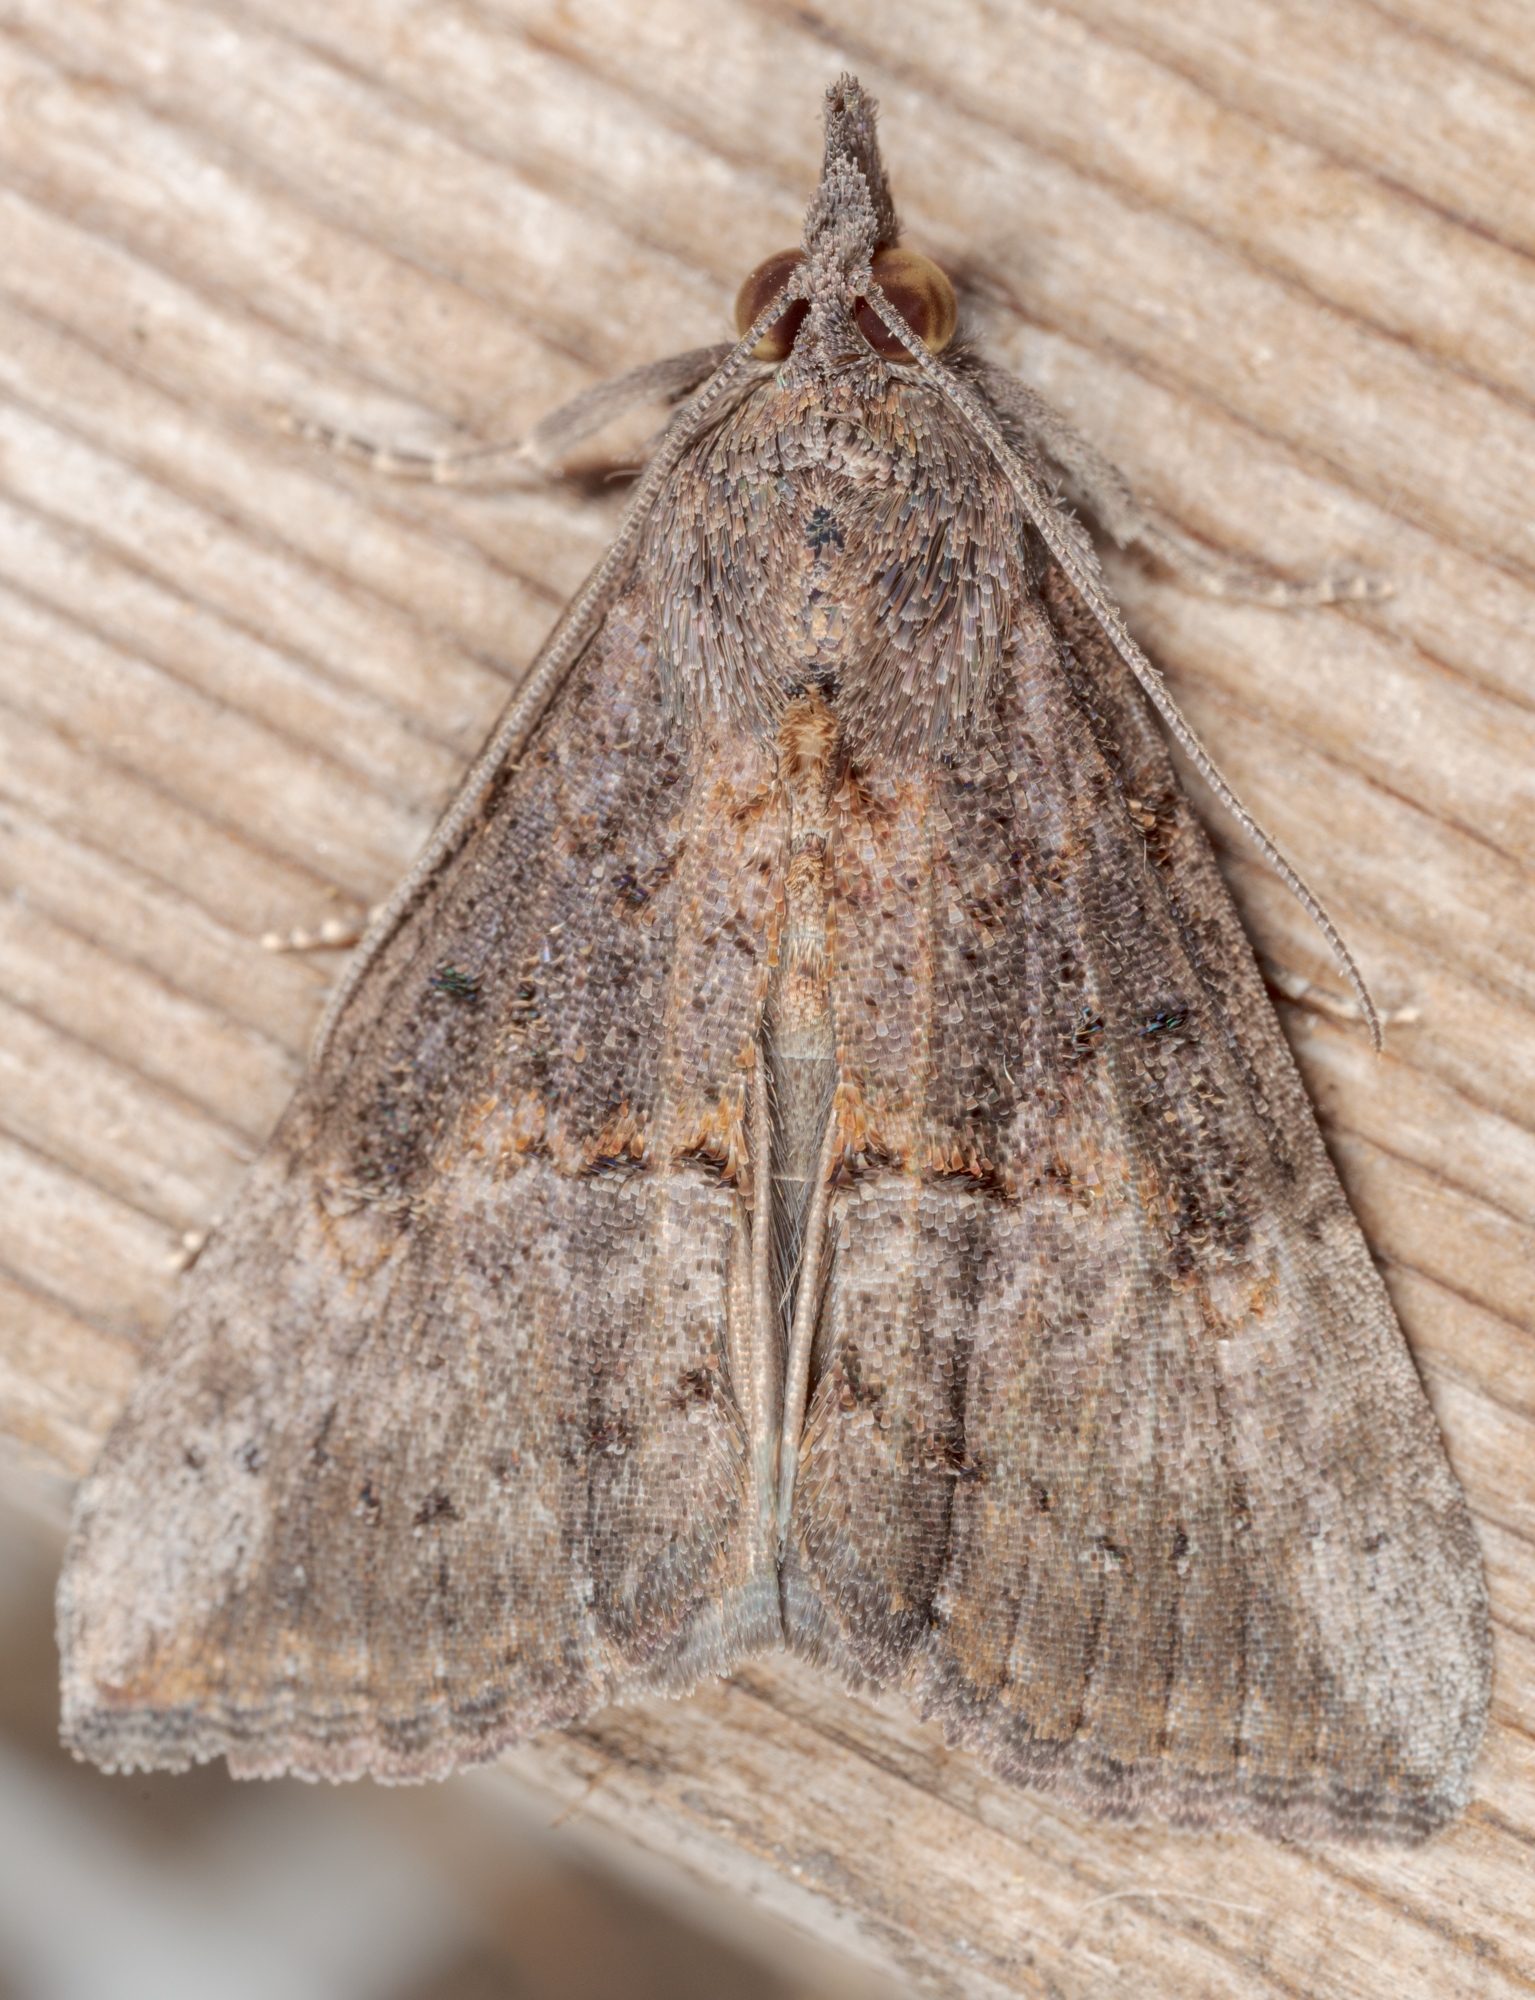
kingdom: Animalia
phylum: Arthropoda
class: Insecta
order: Lepidoptera
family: Erebidae
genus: Hypena
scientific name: Hypena scabra
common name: Green cloverworm
